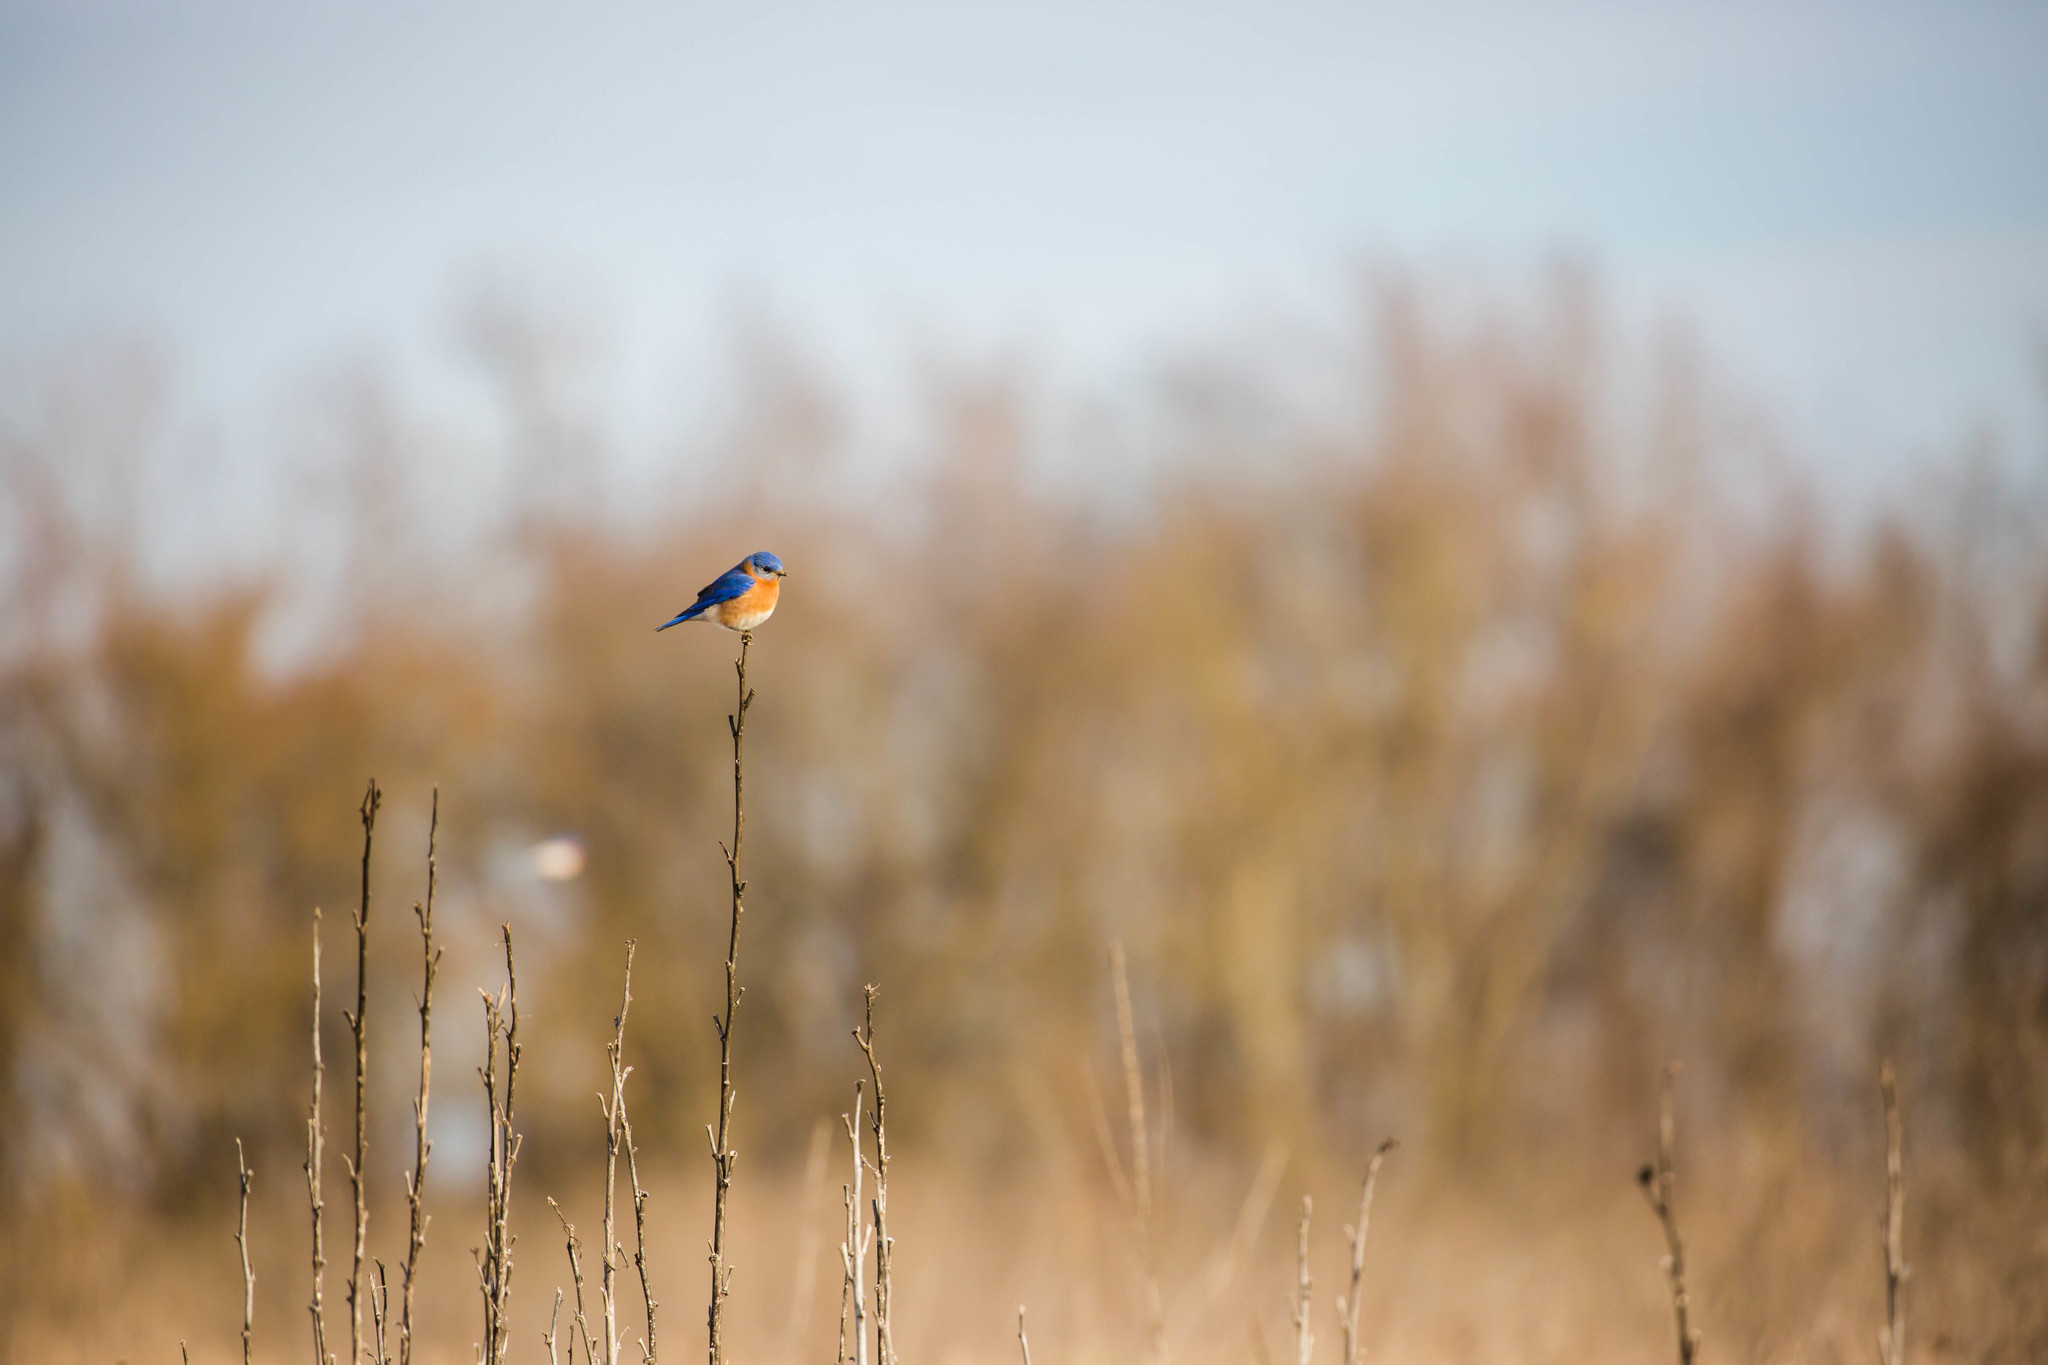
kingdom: Animalia
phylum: Chordata
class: Aves
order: Passeriformes
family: Turdidae
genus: Sialia
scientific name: Sialia sialis
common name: Eastern bluebird
